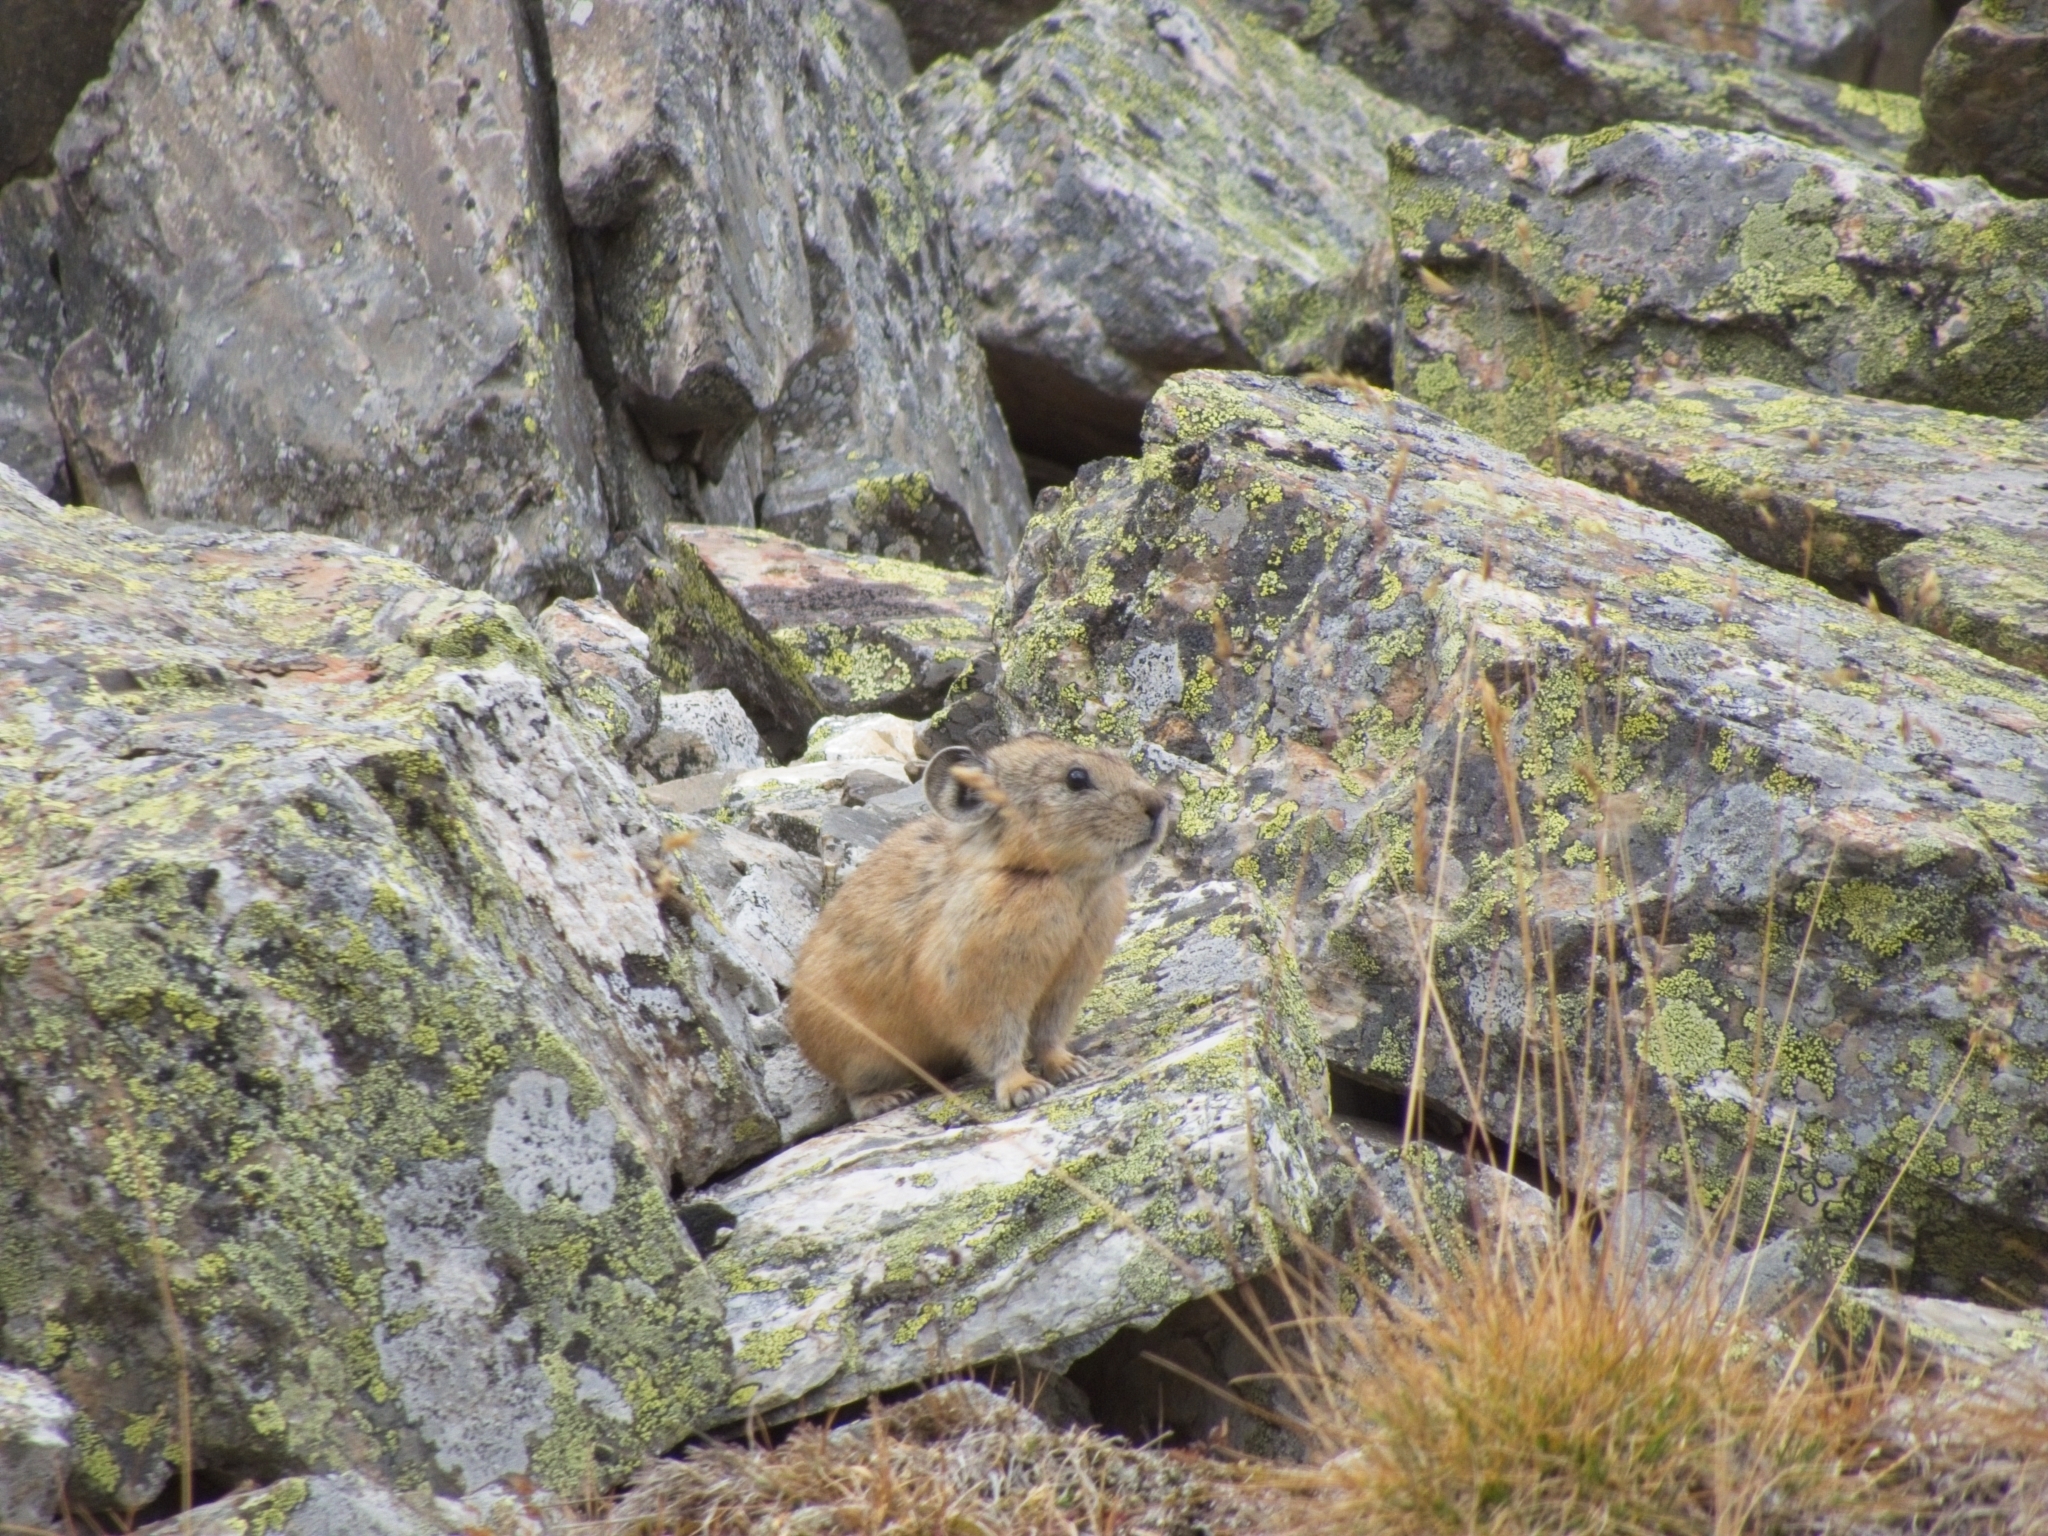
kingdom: Animalia
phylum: Chordata
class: Mammalia
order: Lagomorpha
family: Ochotonidae
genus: Ochotona
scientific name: Ochotona alpina
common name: Alpine pika
